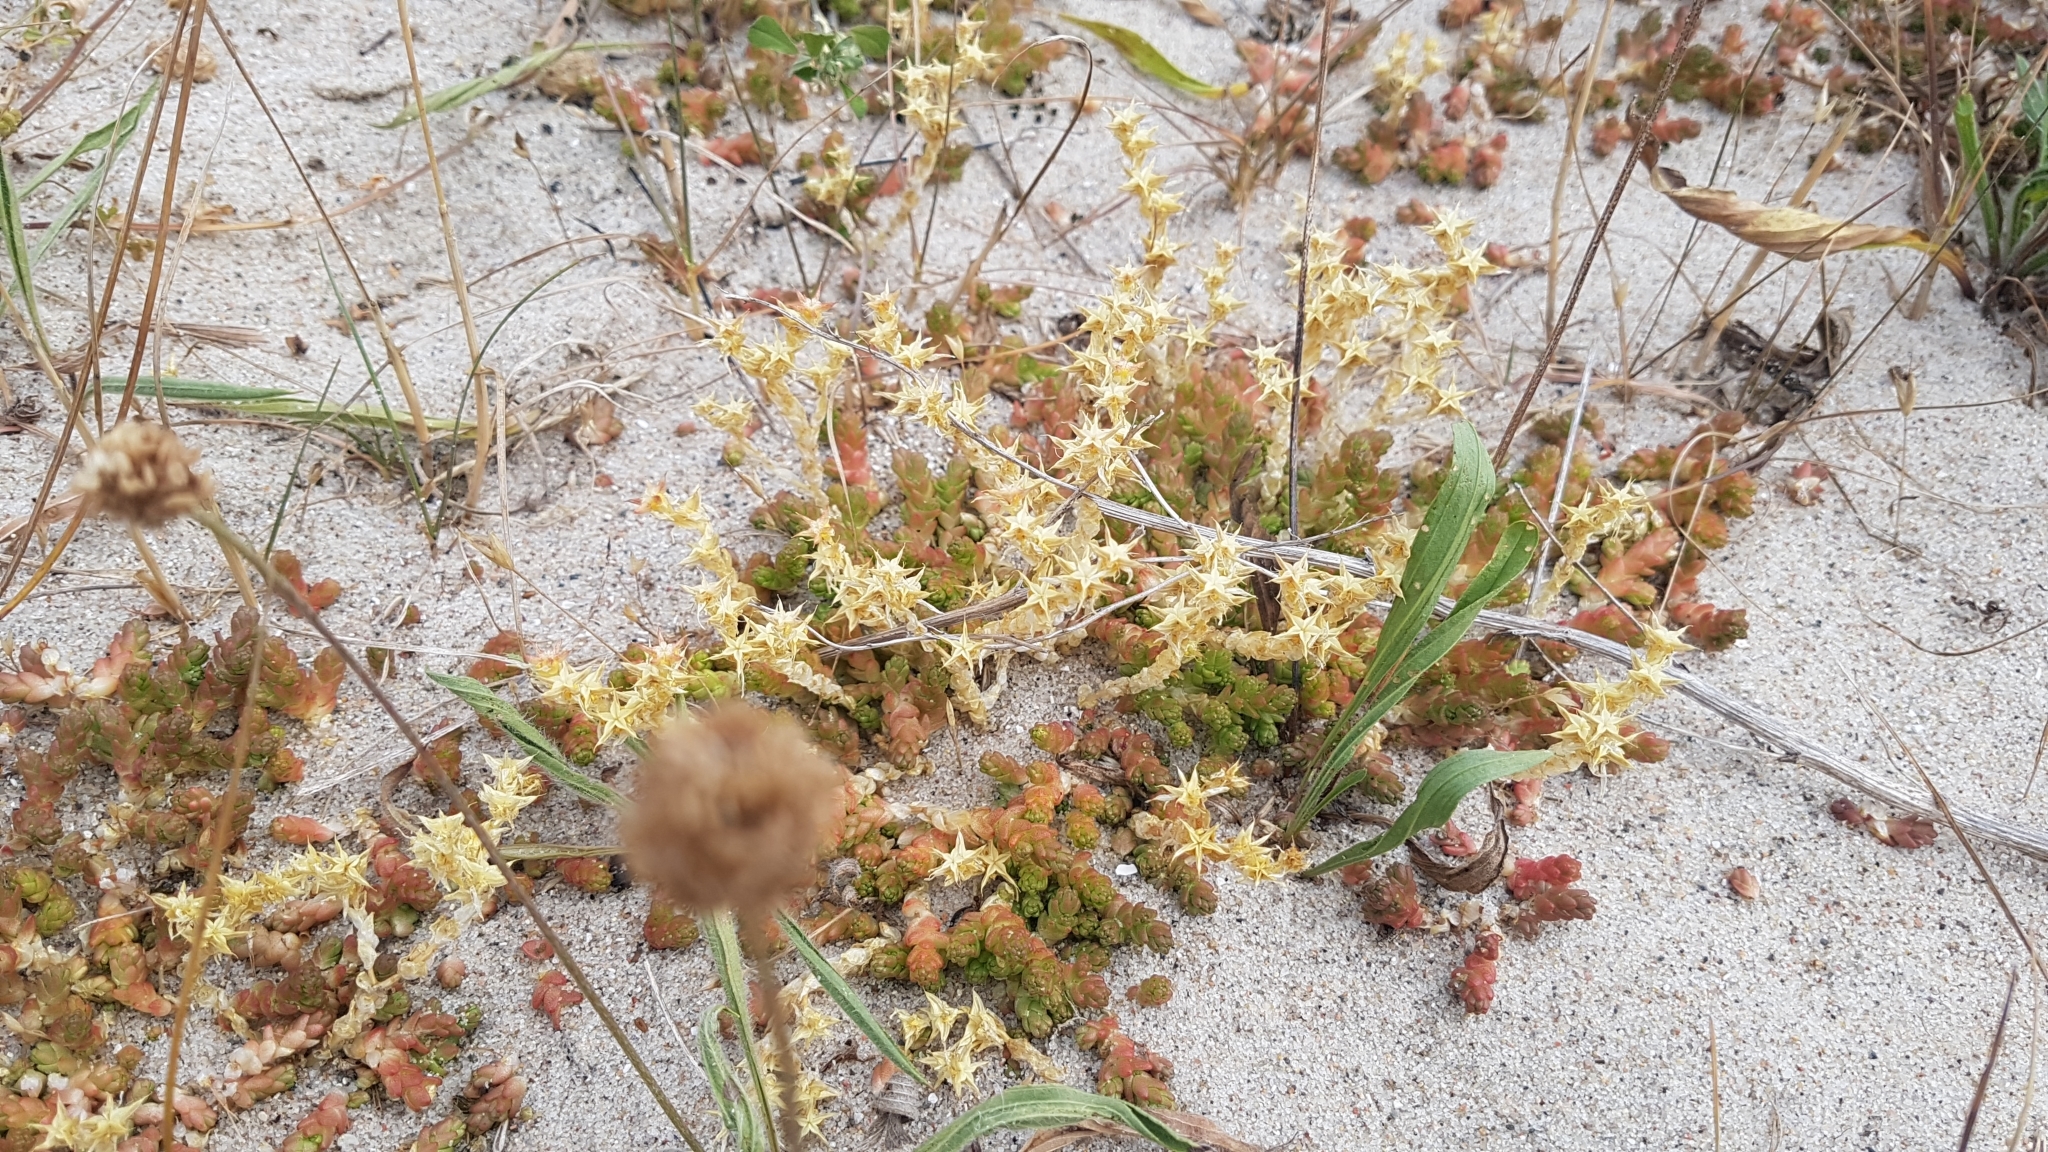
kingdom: Plantae
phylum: Tracheophyta
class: Magnoliopsida
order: Saxifragales
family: Crassulaceae
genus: Sedum
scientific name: Sedum acre
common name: Biting stonecrop
